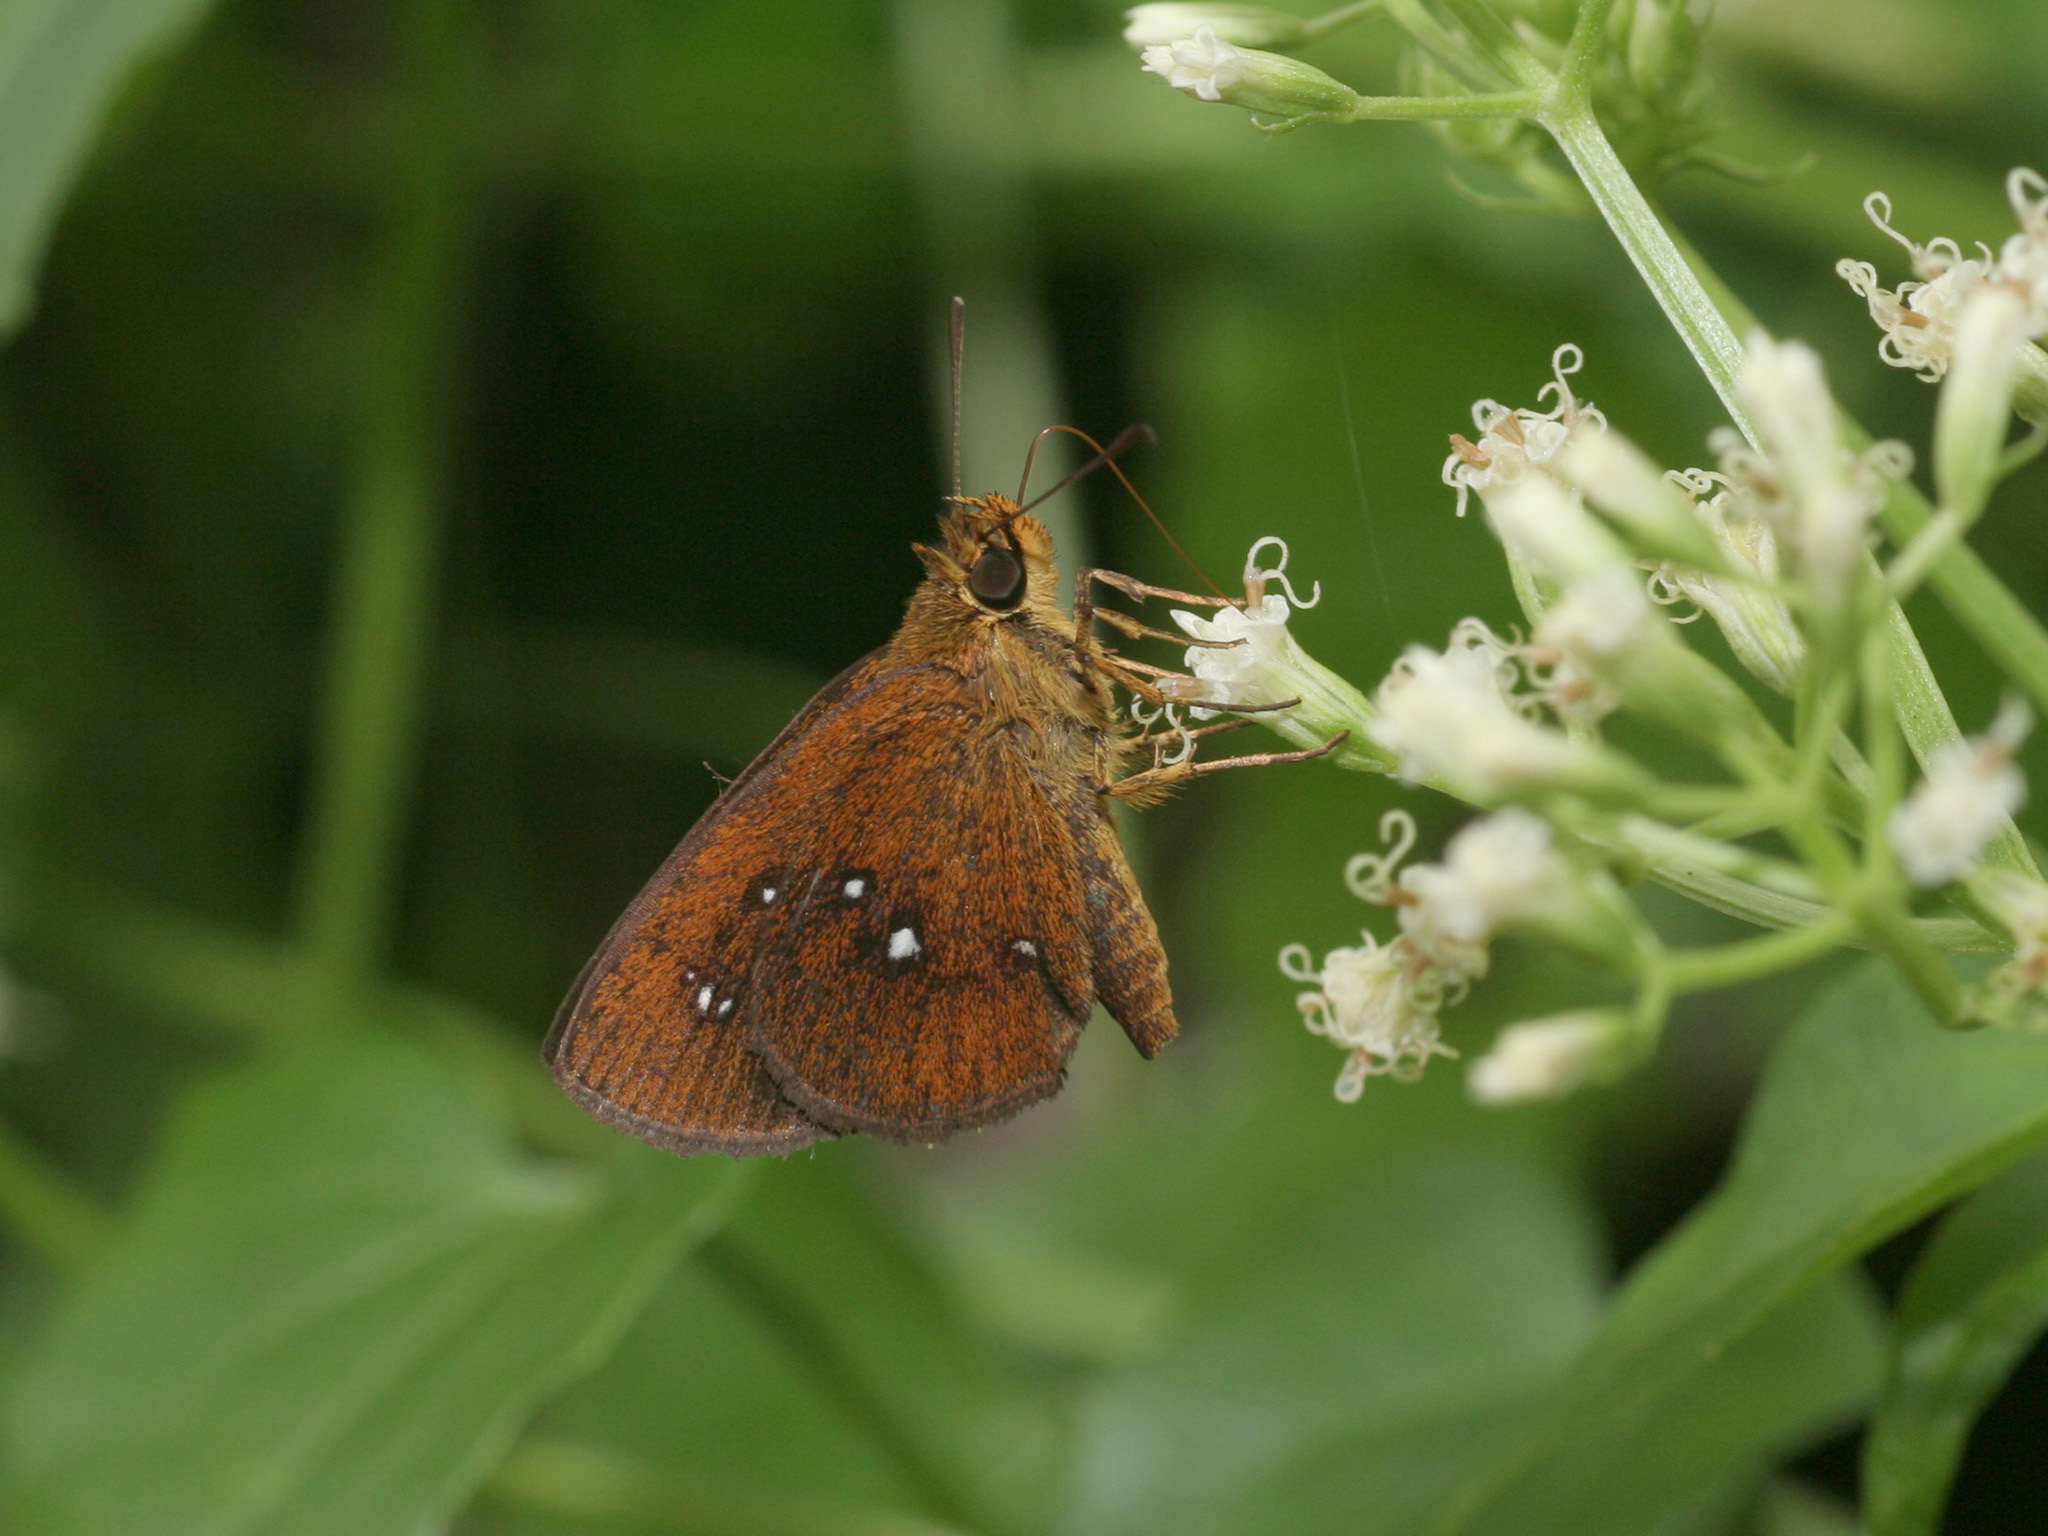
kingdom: Animalia
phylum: Arthropoda
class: Insecta
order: Lepidoptera
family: Hesperiidae
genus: Iambrix
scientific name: Iambrix salsala
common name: Chestnut bob
